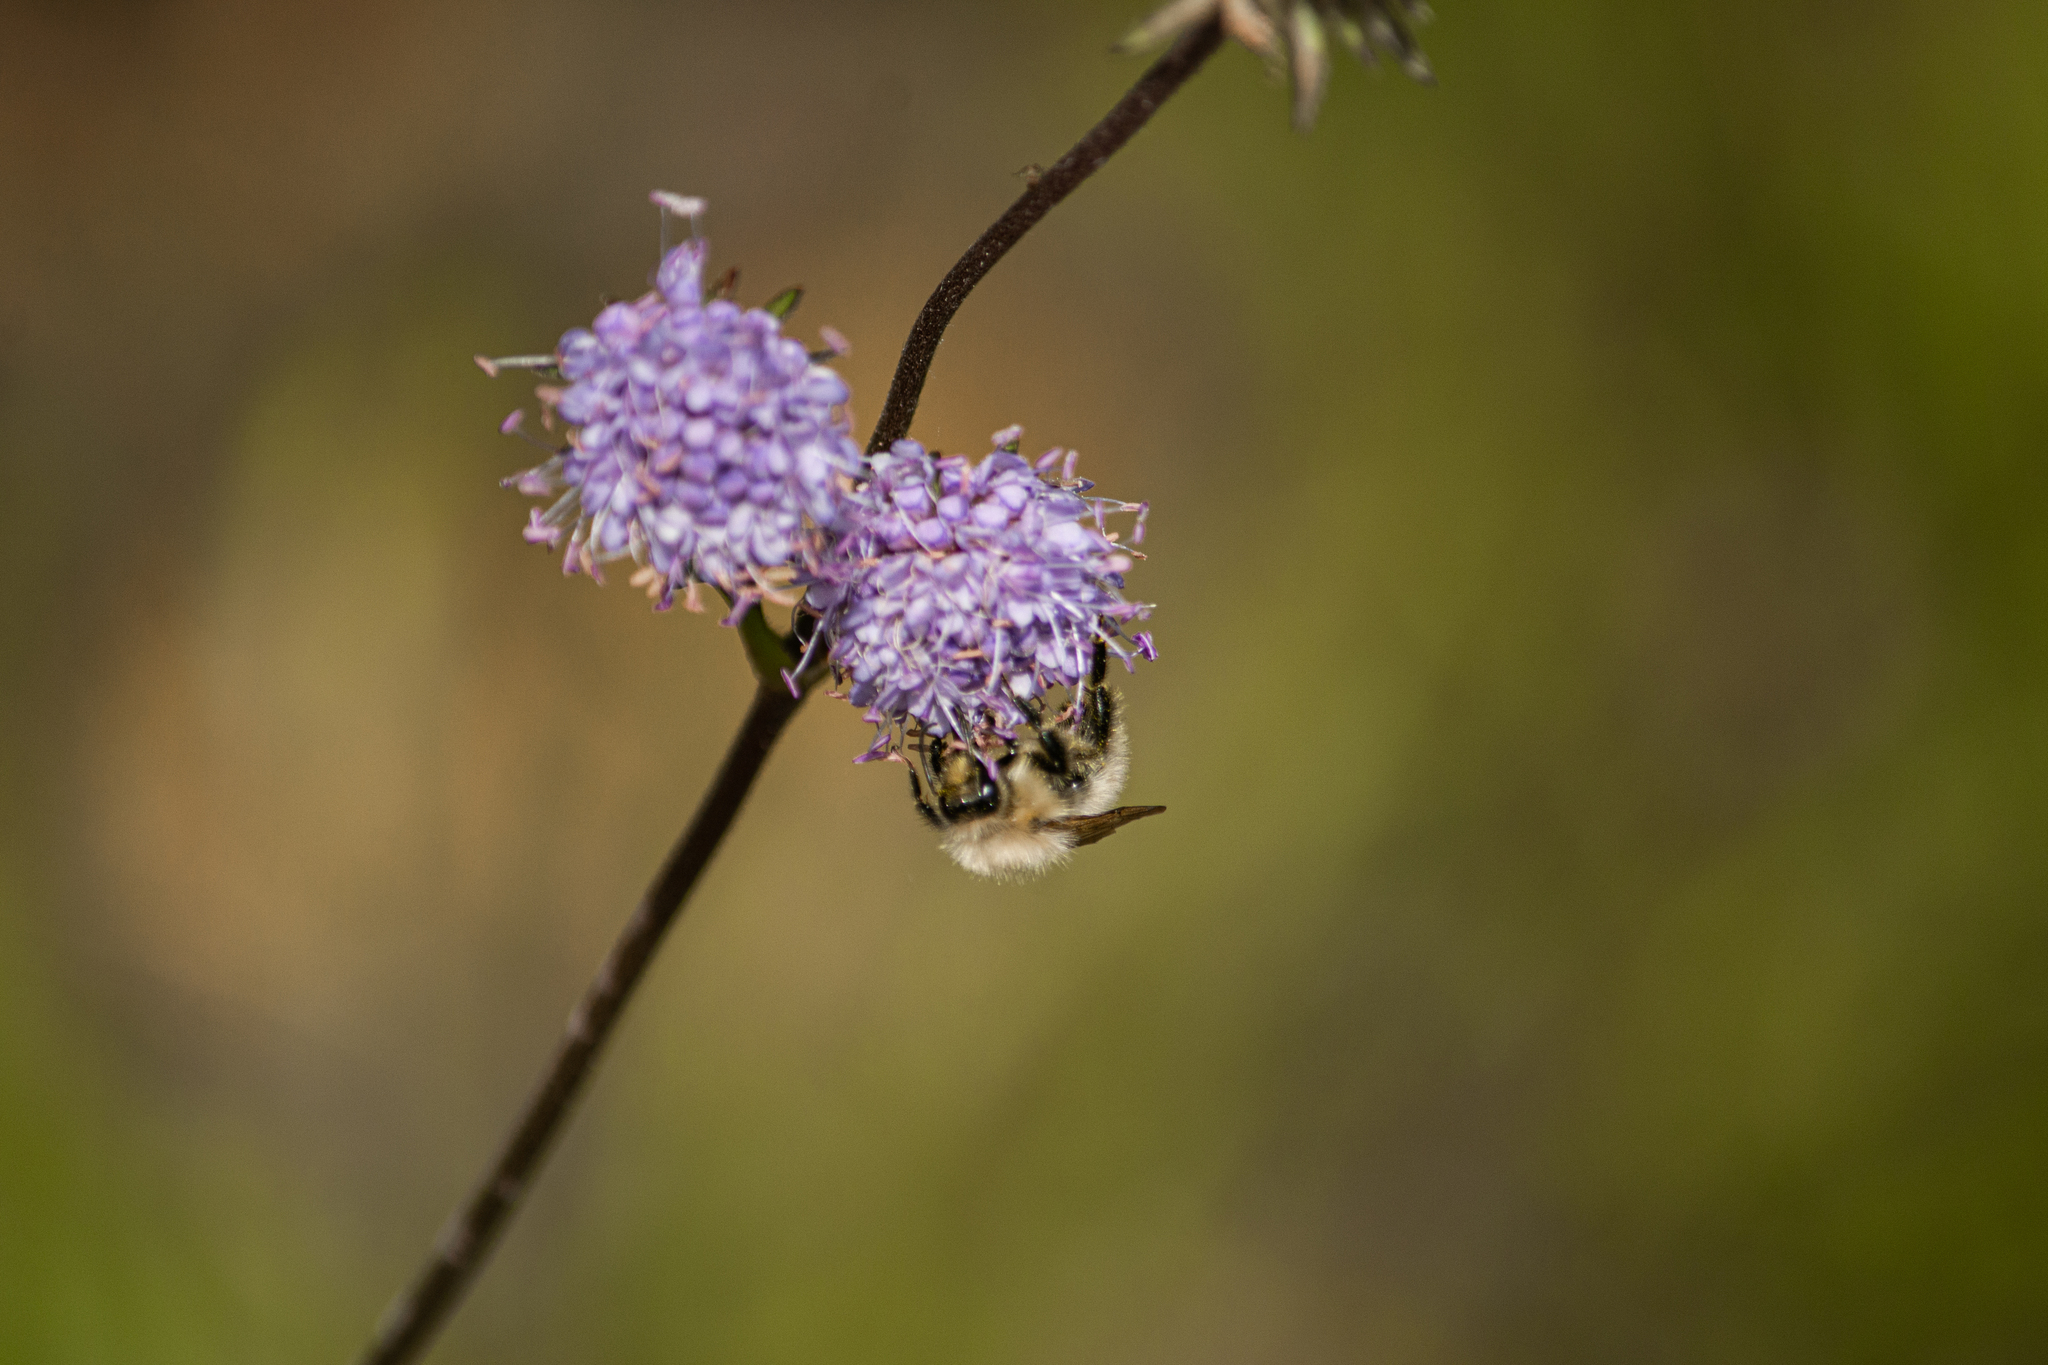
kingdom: Animalia
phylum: Arthropoda
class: Insecta
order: Hymenoptera
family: Apidae
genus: Bombus
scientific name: Bombus pascuorum
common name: Common carder bee
